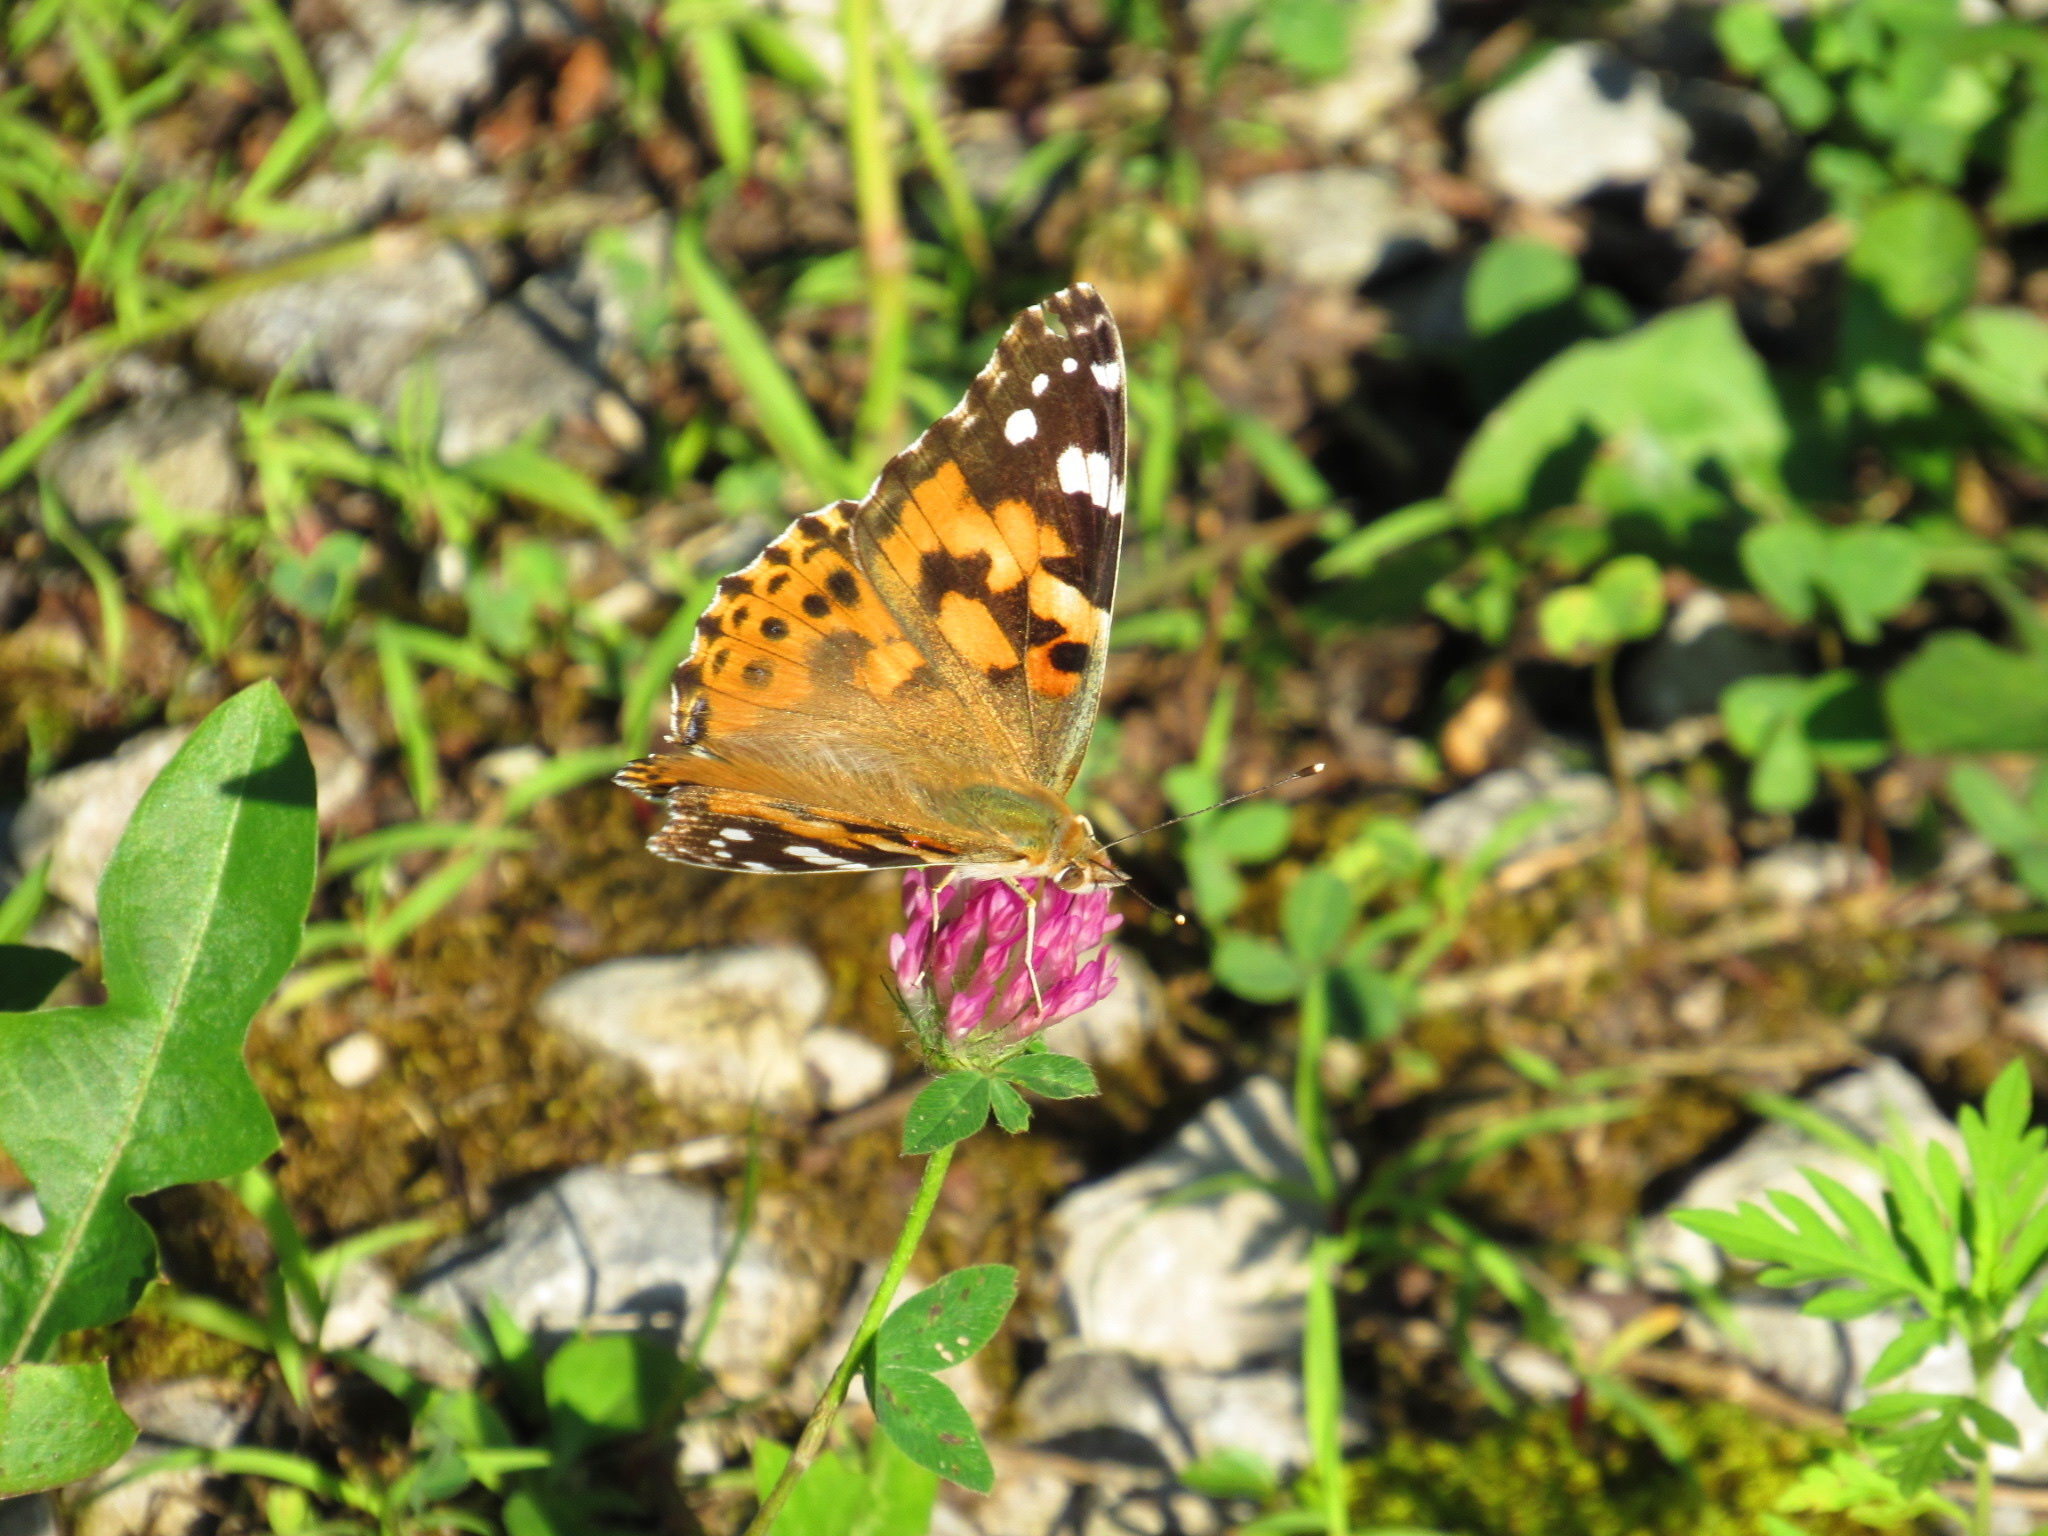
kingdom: Animalia
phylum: Arthropoda
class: Insecta
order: Lepidoptera
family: Nymphalidae
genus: Vanessa
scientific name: Vanessa cardui
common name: Painted lady
